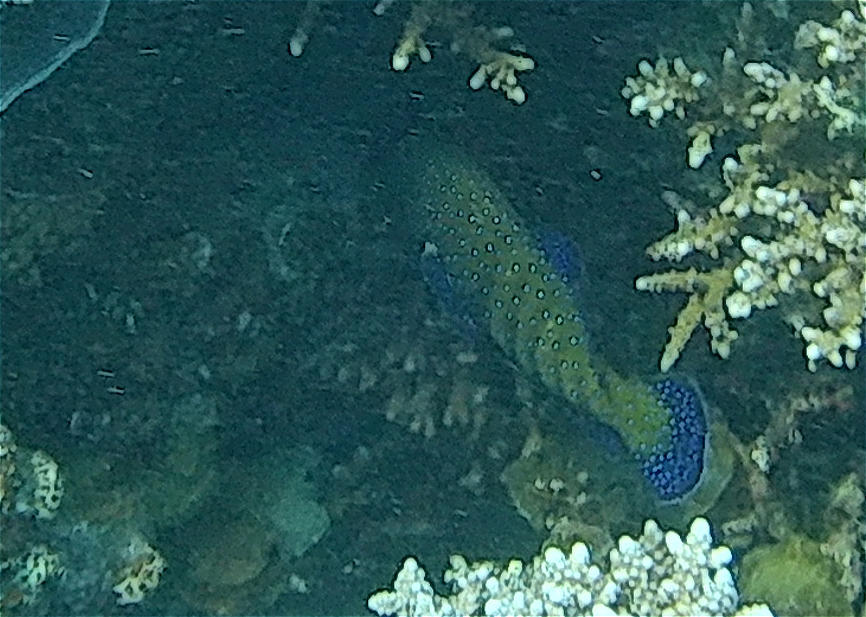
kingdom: Animalia
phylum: Chordata
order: Perciformes
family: Serranidae
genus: Cephalopholis
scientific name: Cephalopholis argus
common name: Peacock grouper
